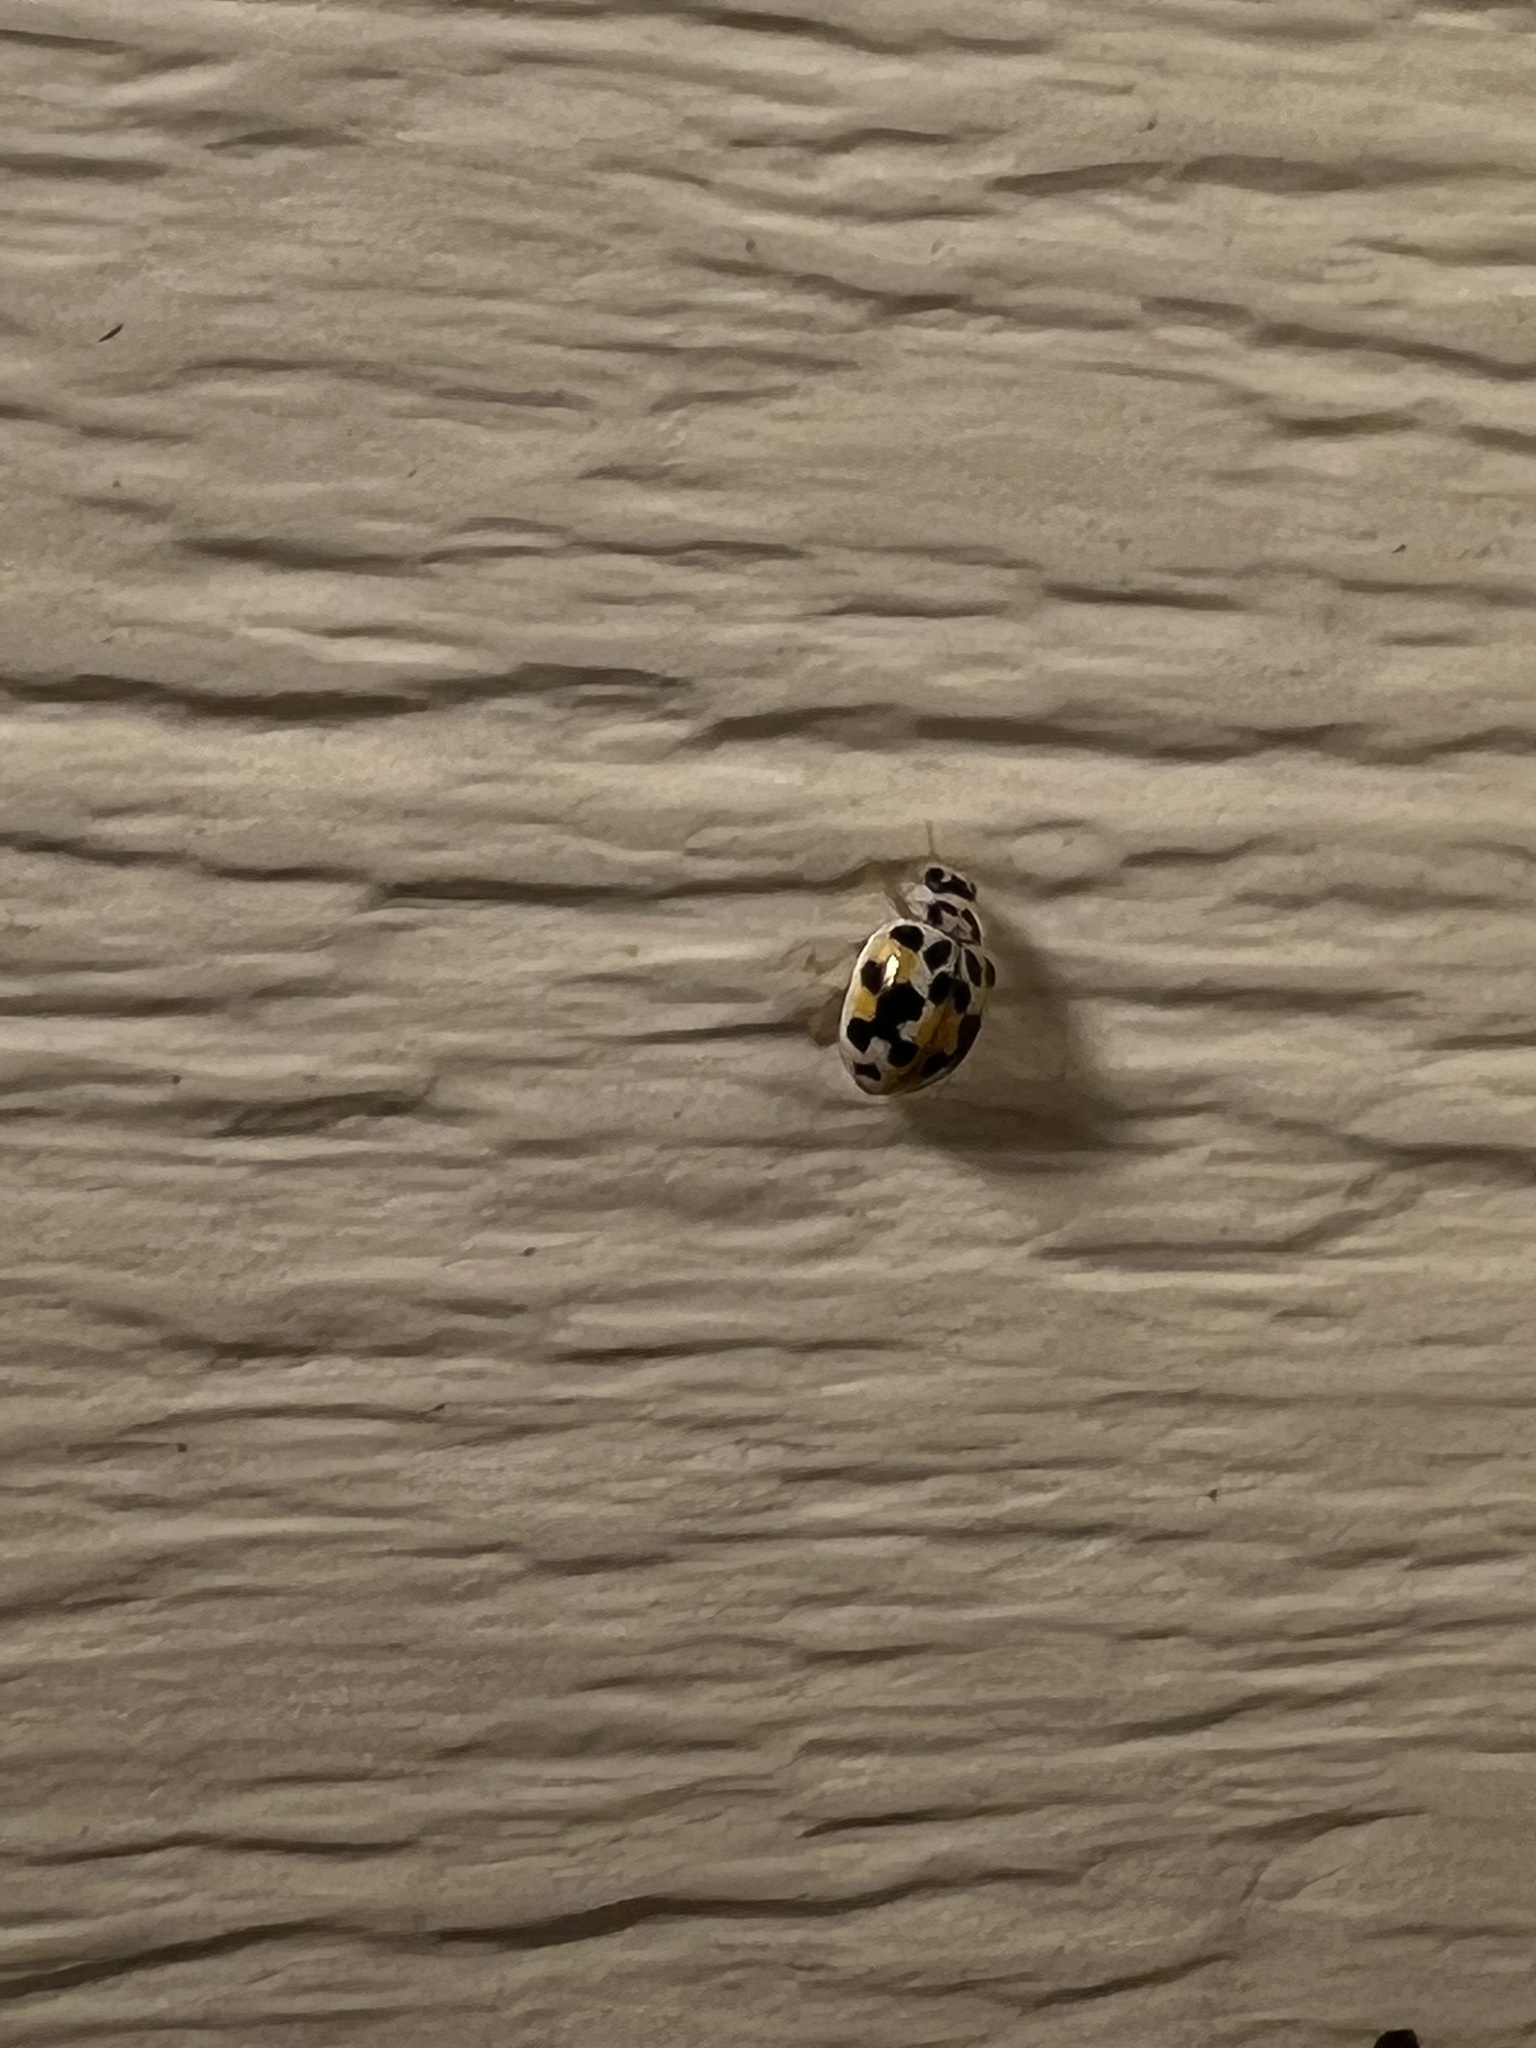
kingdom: Animalia
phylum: Arthropoda
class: Insecta
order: Coleoptera
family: Coccinellidae
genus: Psyllobora
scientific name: Psyllobora vigintimaculata
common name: Ladybird beetle
